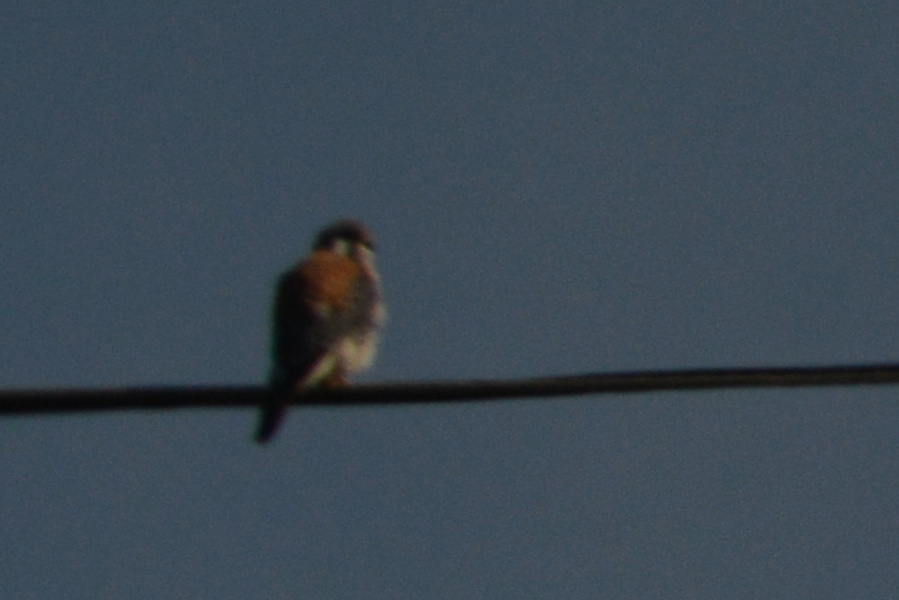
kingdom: Animalia
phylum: Chordata
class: Aves
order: Falconiformes
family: Falconidae
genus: Falco
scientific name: Falco sparverius
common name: American kestrel
